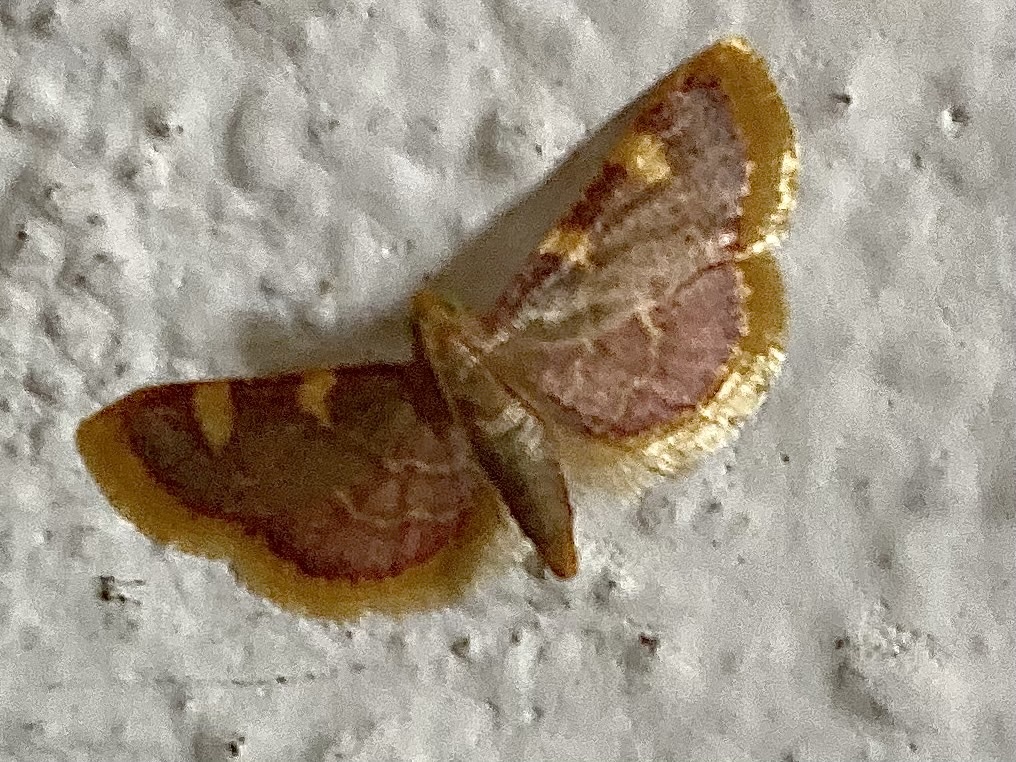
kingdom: Animalia
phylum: Arthropoda
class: Insecta
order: Lepidoptera
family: Pyralidae
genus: Hypsopygia
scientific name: Hypsopygia costalis
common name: Gold triangle
